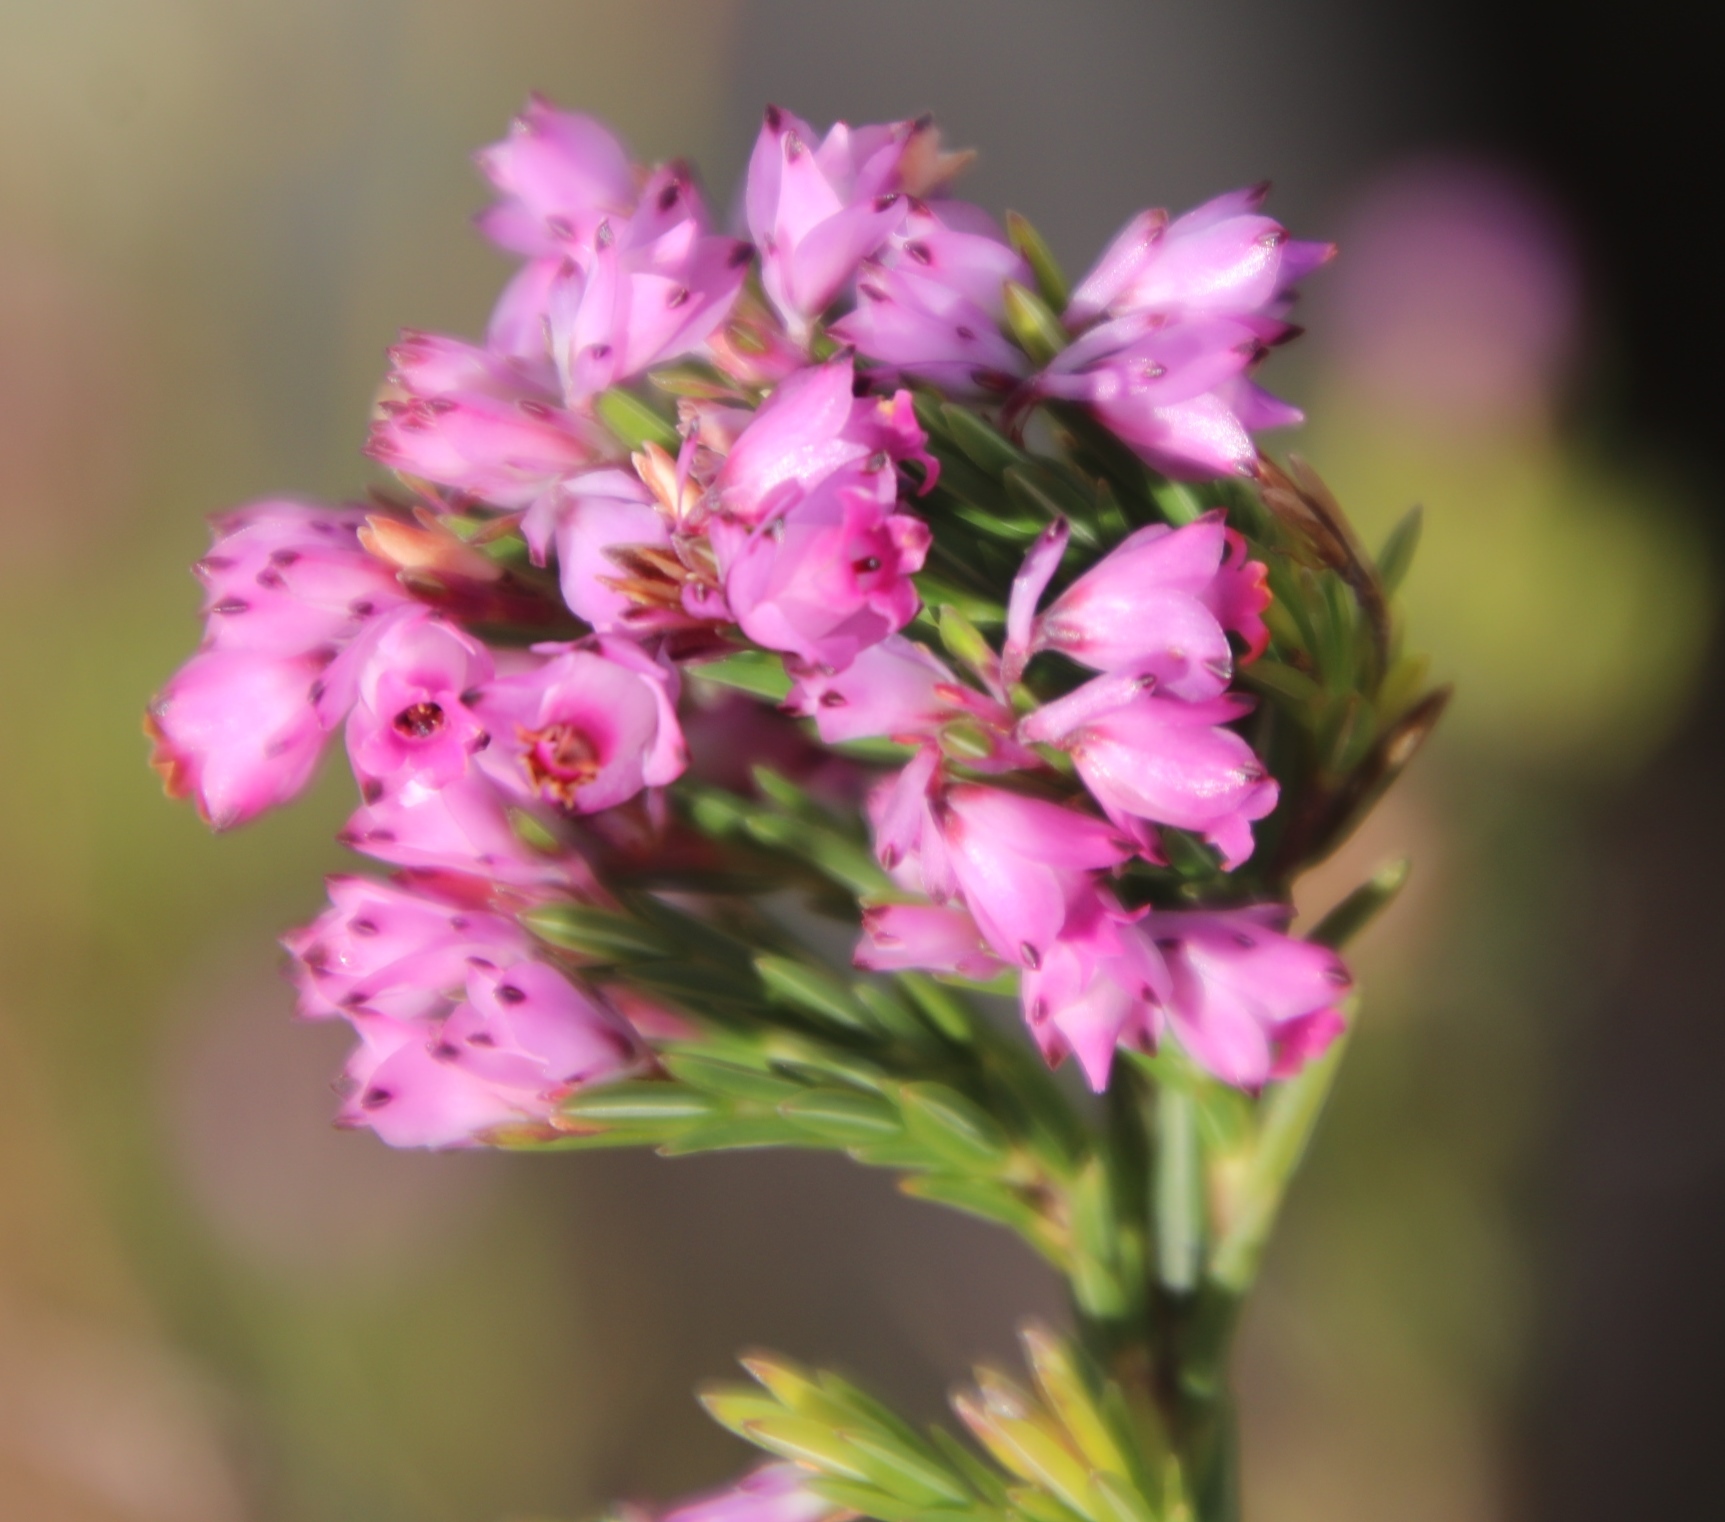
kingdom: Plantae
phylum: Tracheophyta
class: Magnoliopsida
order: Ericales
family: Ericaceae
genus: Erica
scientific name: Erica corifolia
